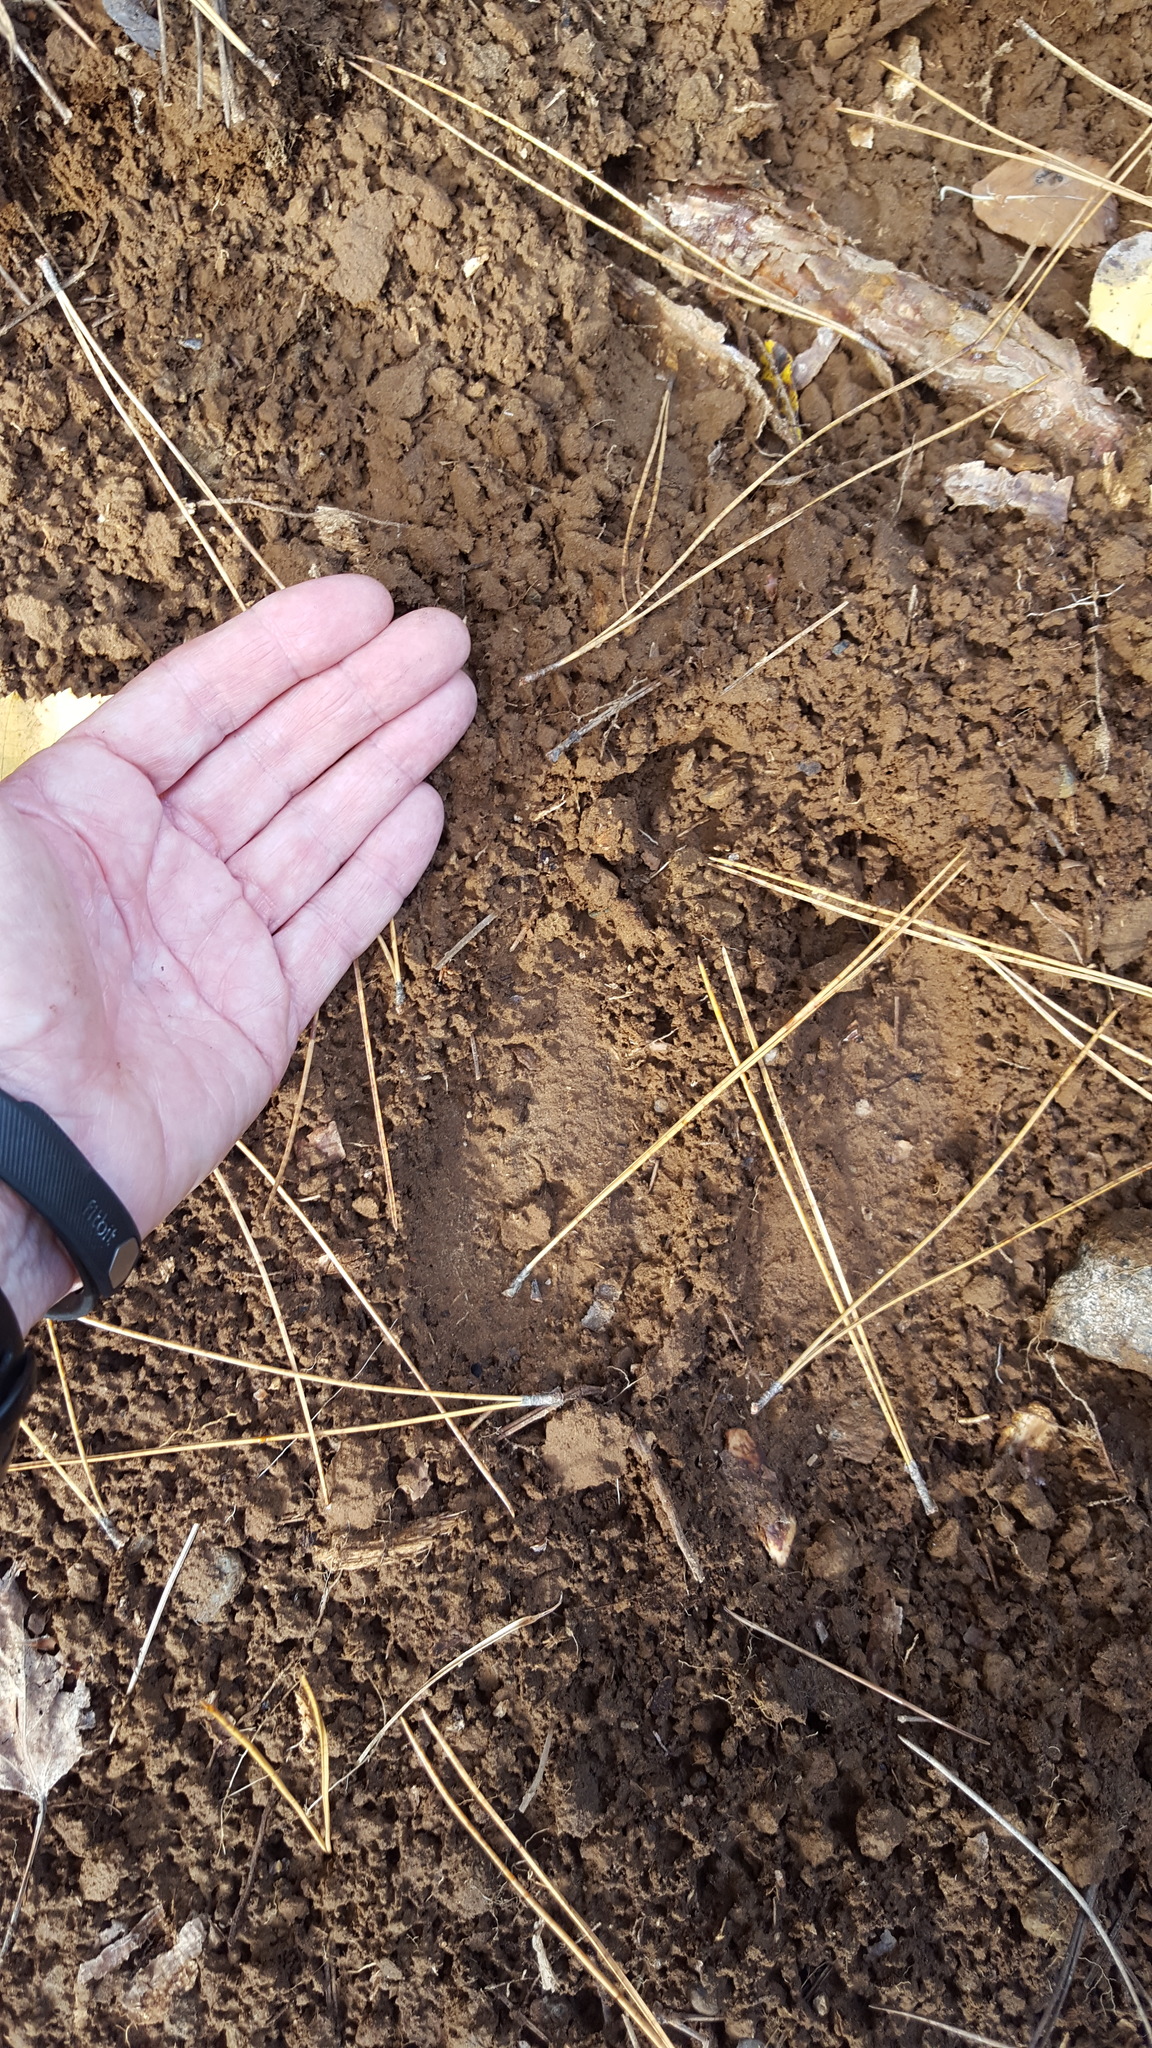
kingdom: Animalia
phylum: Chordata
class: Mammalia
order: Artiodactyla
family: Cervidae
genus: Alces
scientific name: Alces alces
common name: Moose
